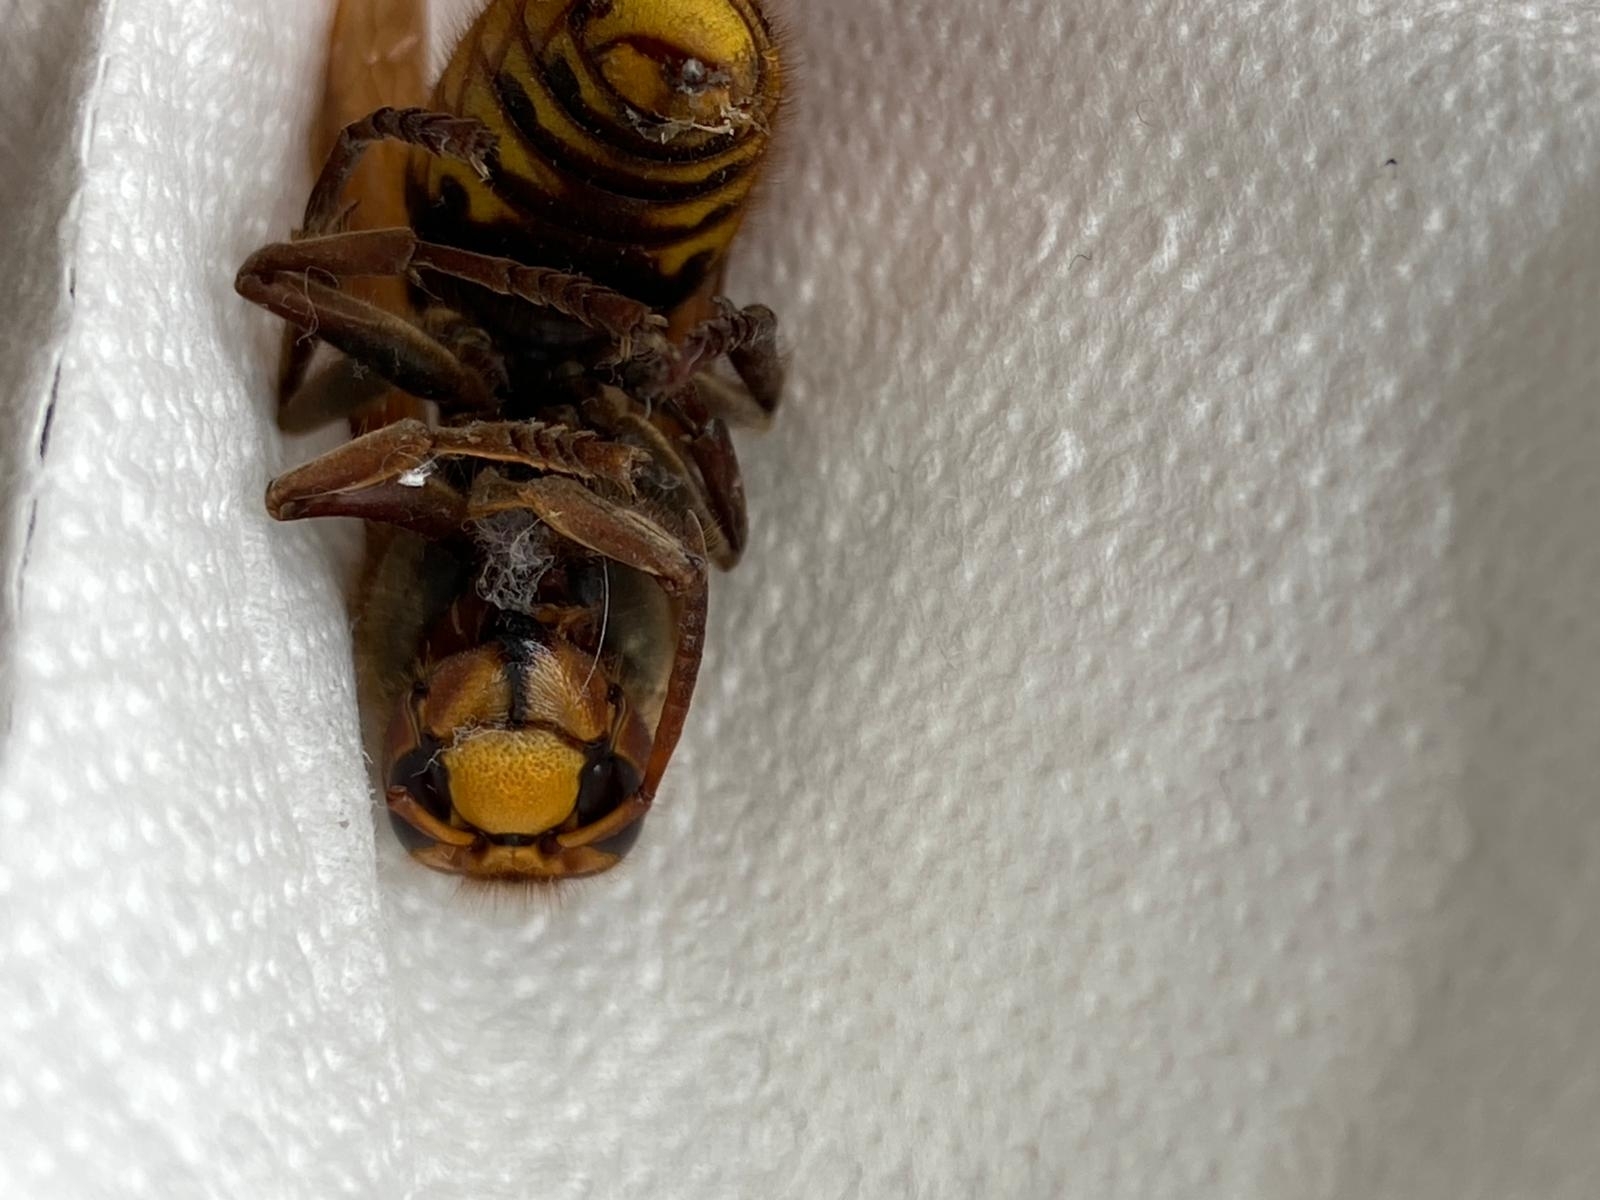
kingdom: Animalia
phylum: Arthropoda
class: Insecta
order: Hymenoptera
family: Vespidae
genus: Vespa
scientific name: Vespa crabro
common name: Hornet
